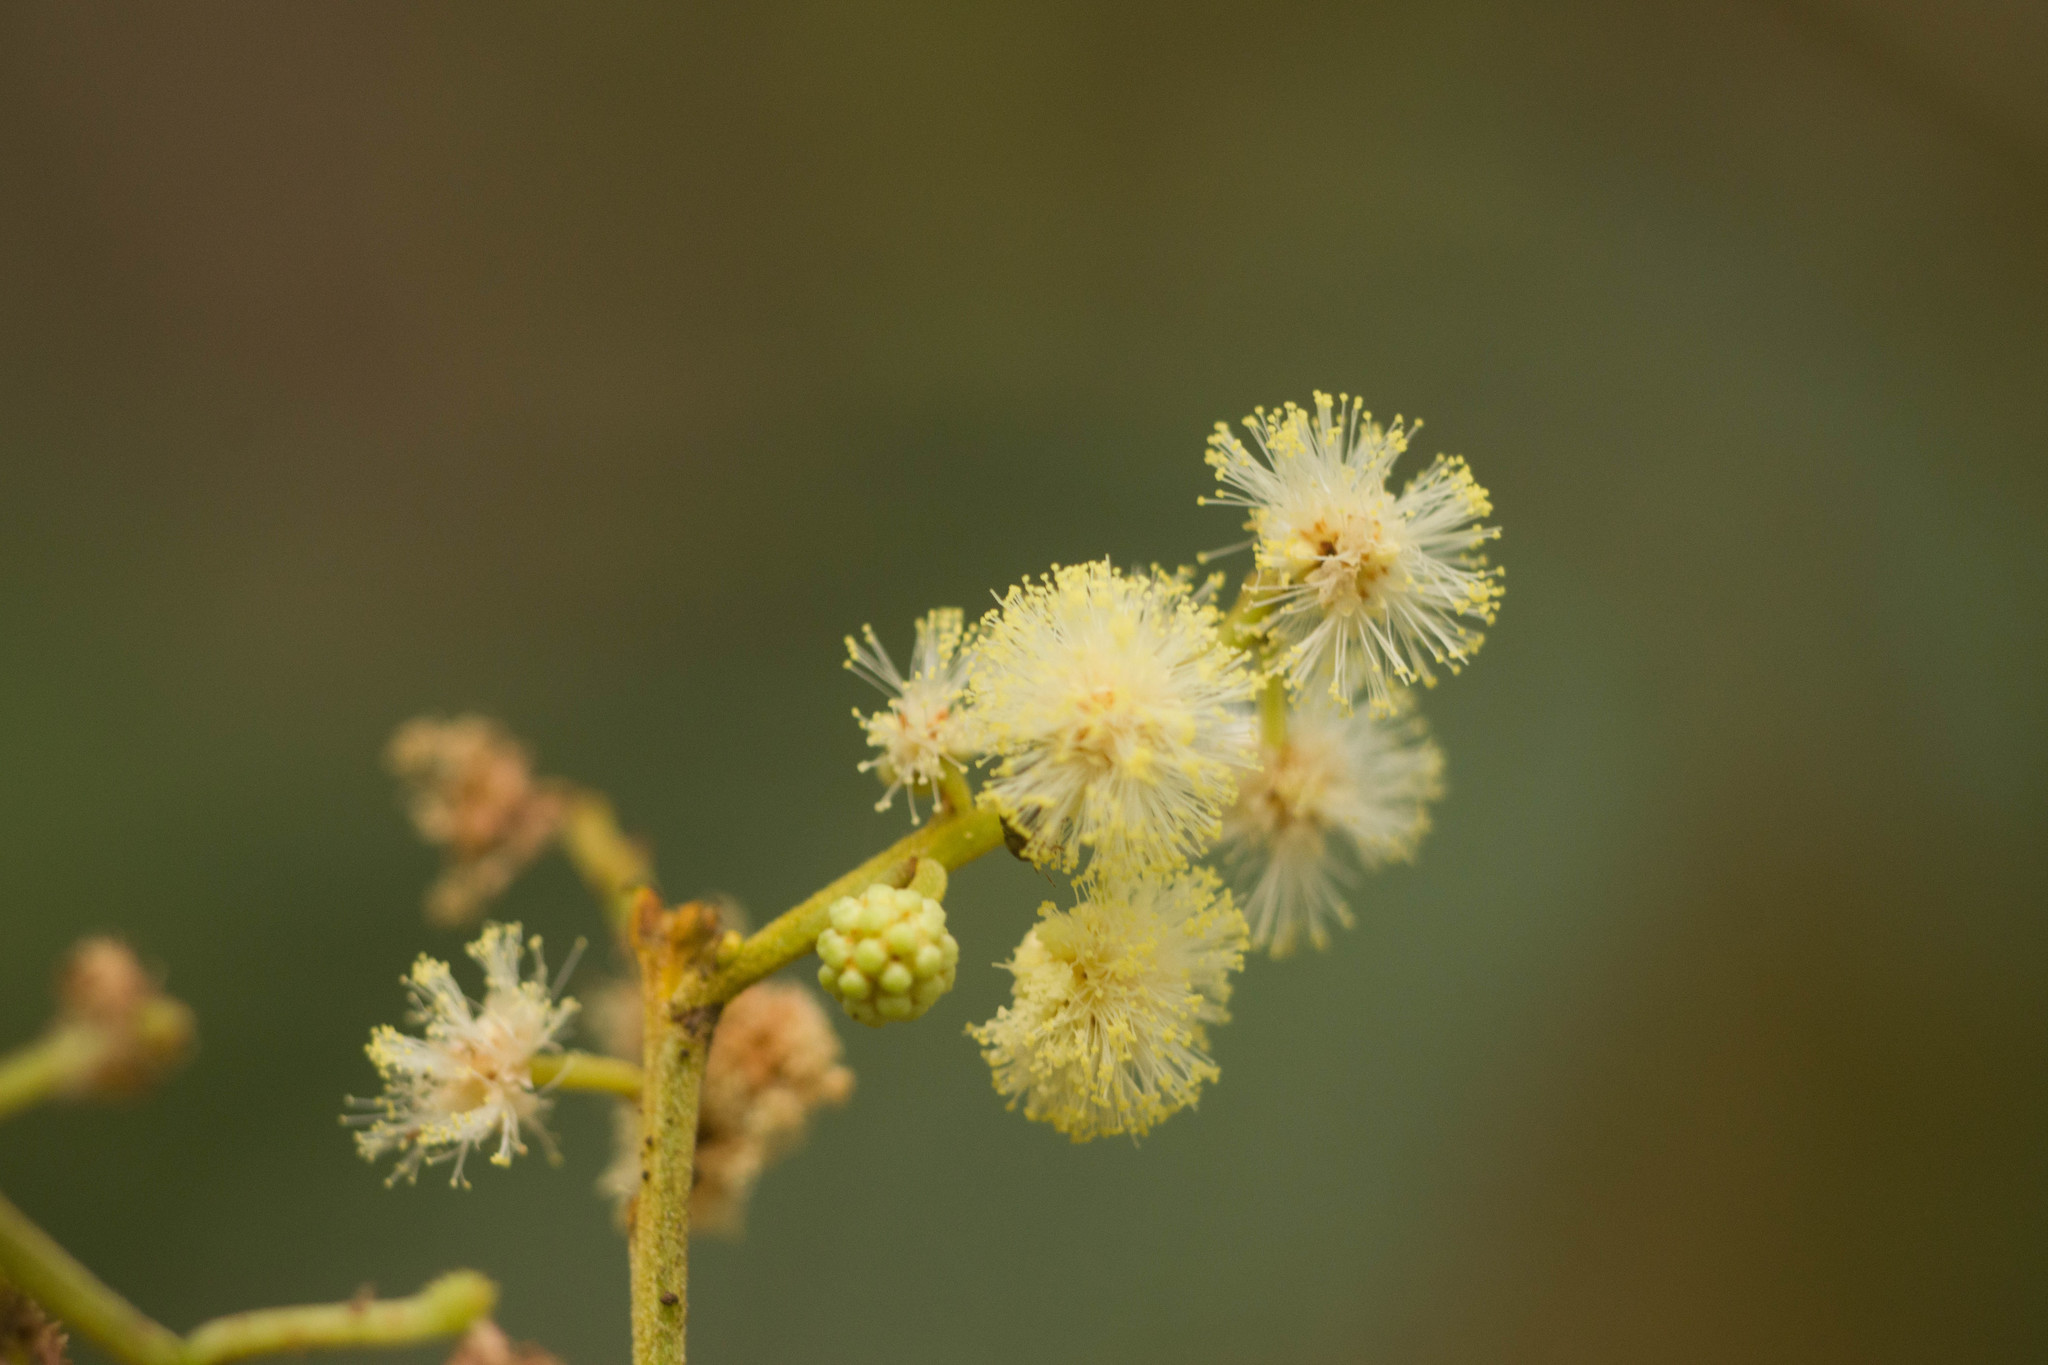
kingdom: Plantae
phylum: Tracheophyta
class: Magnoliopsida
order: Fabales
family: Fabaceae
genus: Acacia
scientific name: Acacia mearnsii
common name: Black wattle
